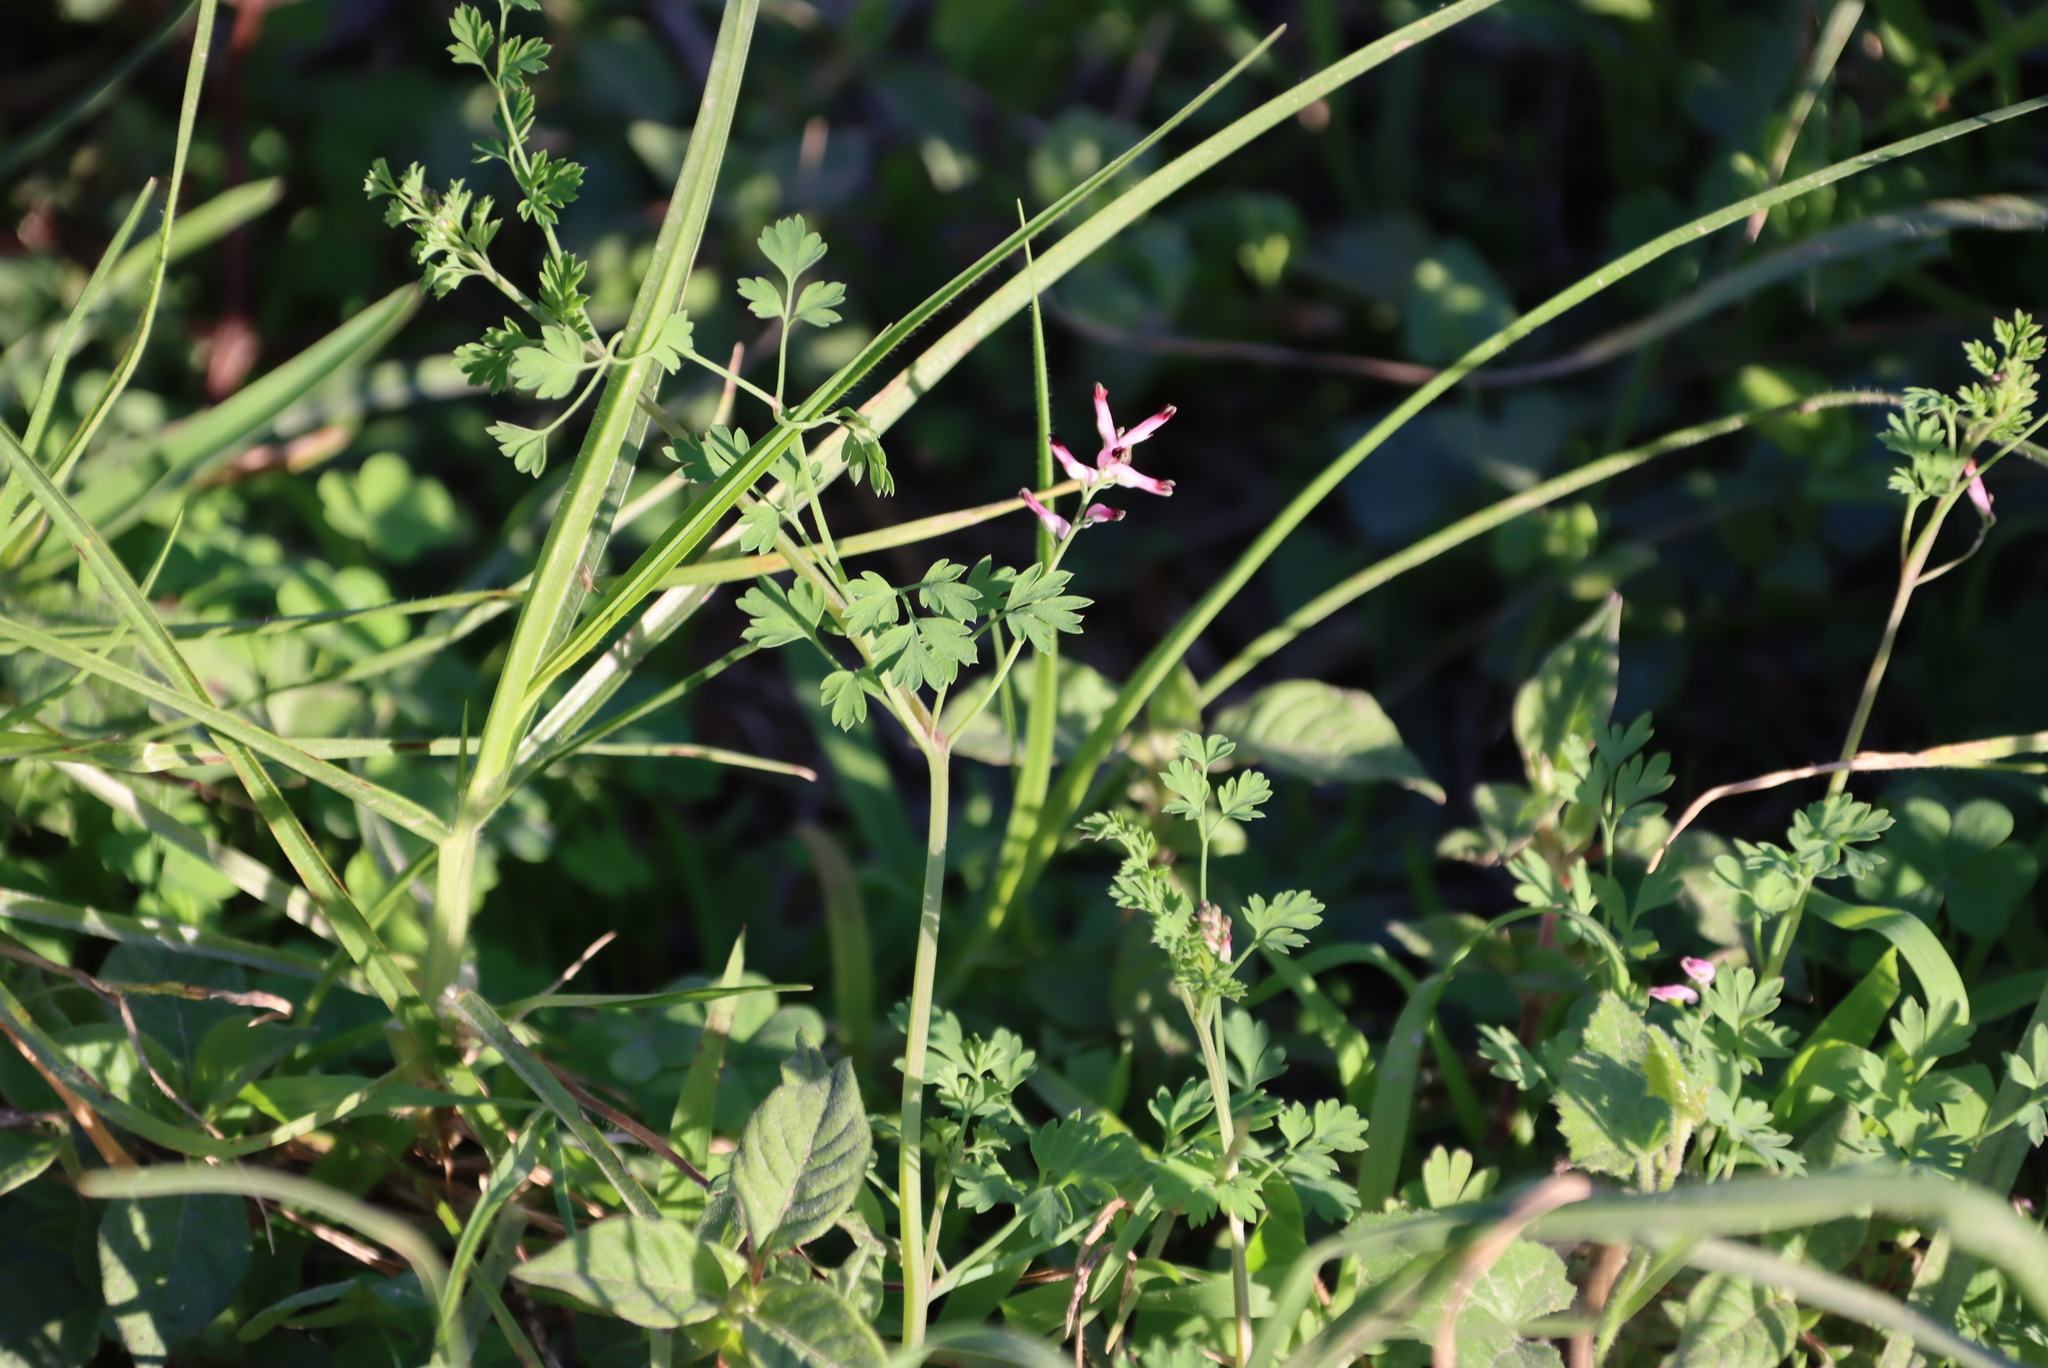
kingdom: Plantae
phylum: Tracheophyta
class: Magnoliopsida
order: Ranunculales
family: Papaveraceae
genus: Fumaria
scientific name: Fumaria muralis
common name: Common ramping-fumitory
